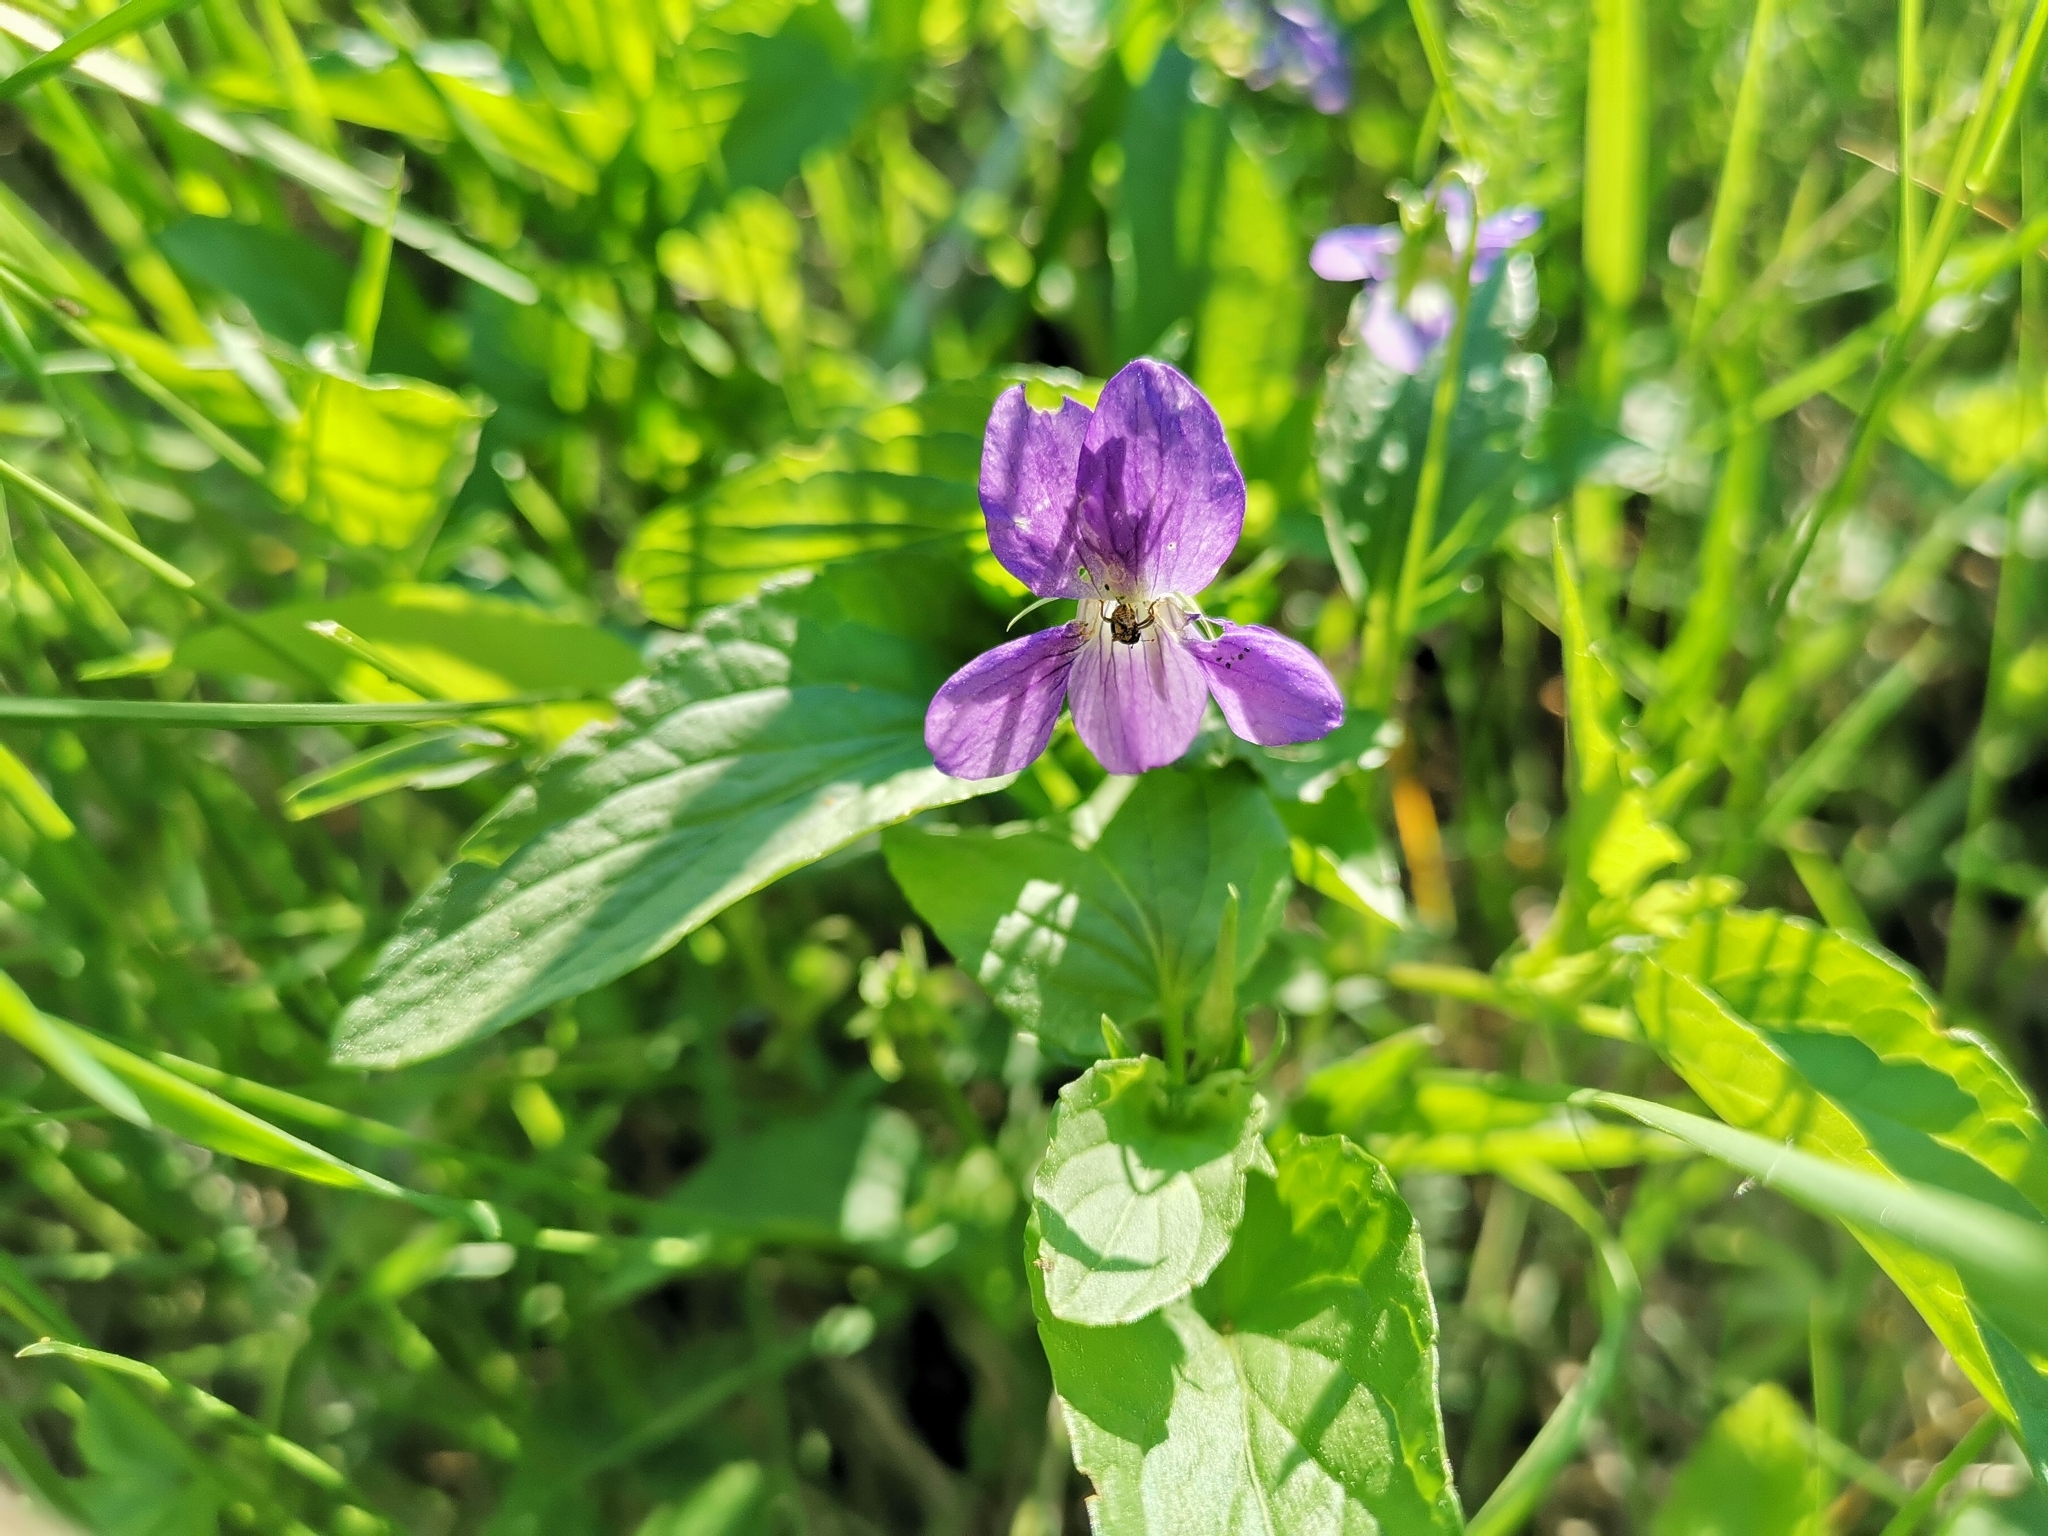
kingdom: Plantae
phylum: Tracheophyta
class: Magnoliopsida
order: Malpighiales
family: Violaceae
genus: Viola
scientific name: Viola canina
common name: Heath dog-violet
